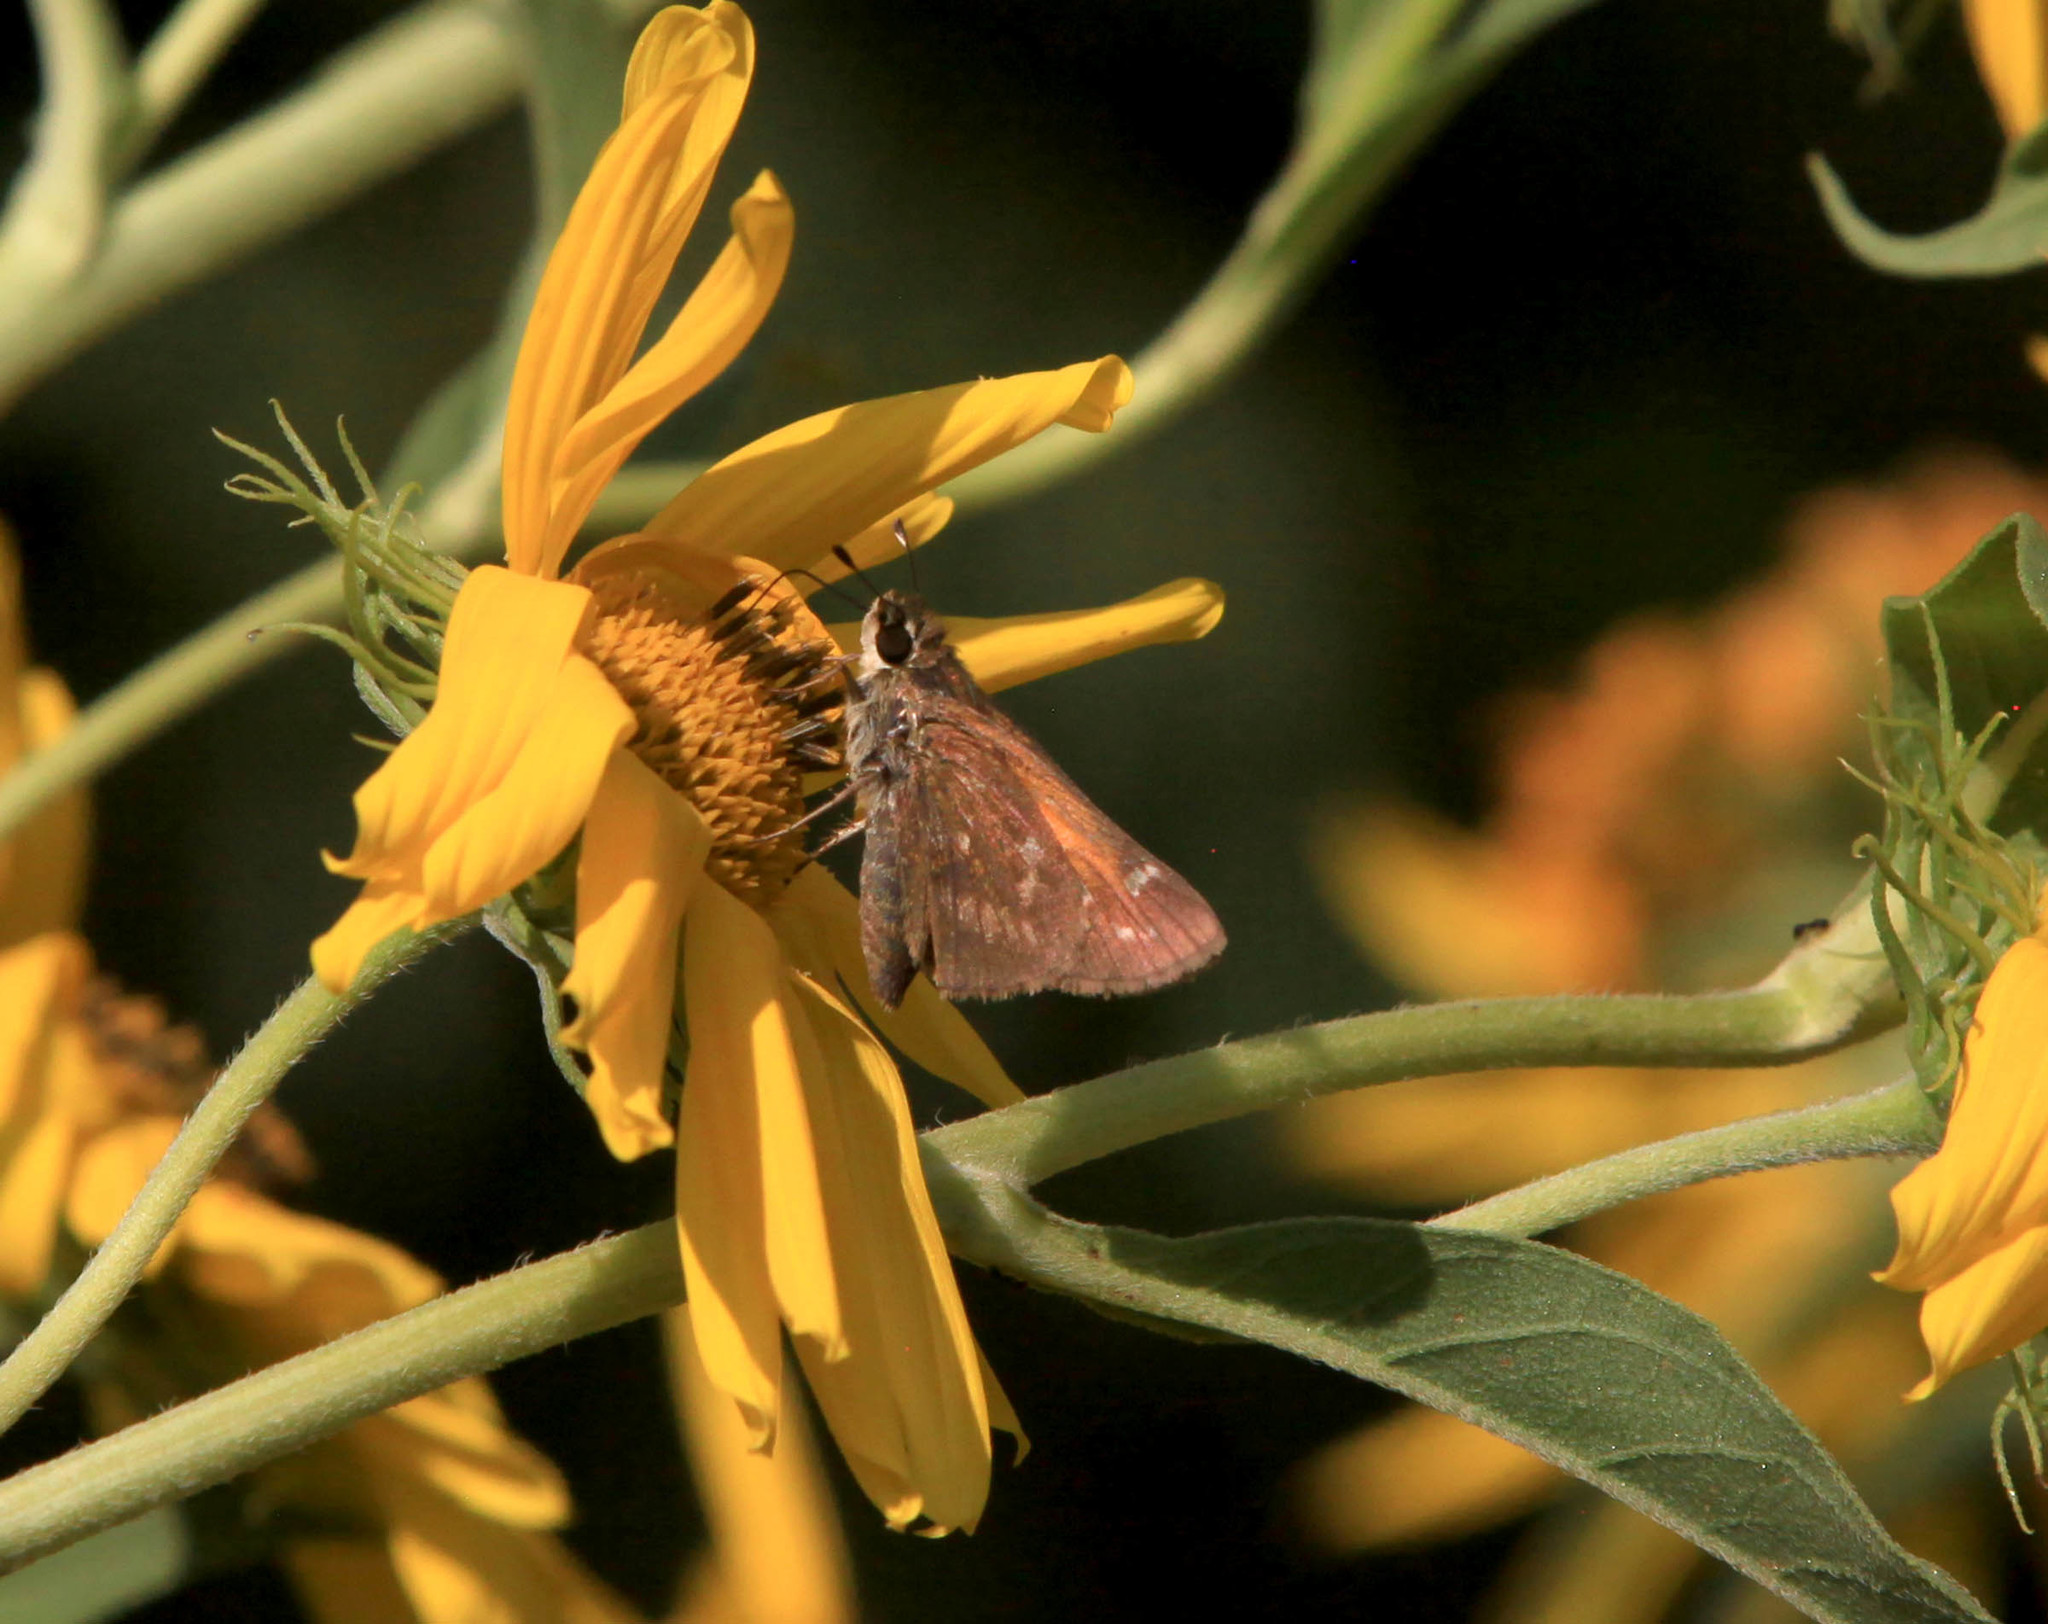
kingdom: Animalia
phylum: Arthropoda
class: Insecta
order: Lepidoptera
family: Hesperiidae
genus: Polites
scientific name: Polites themistocles
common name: Tawny-edged skipper
